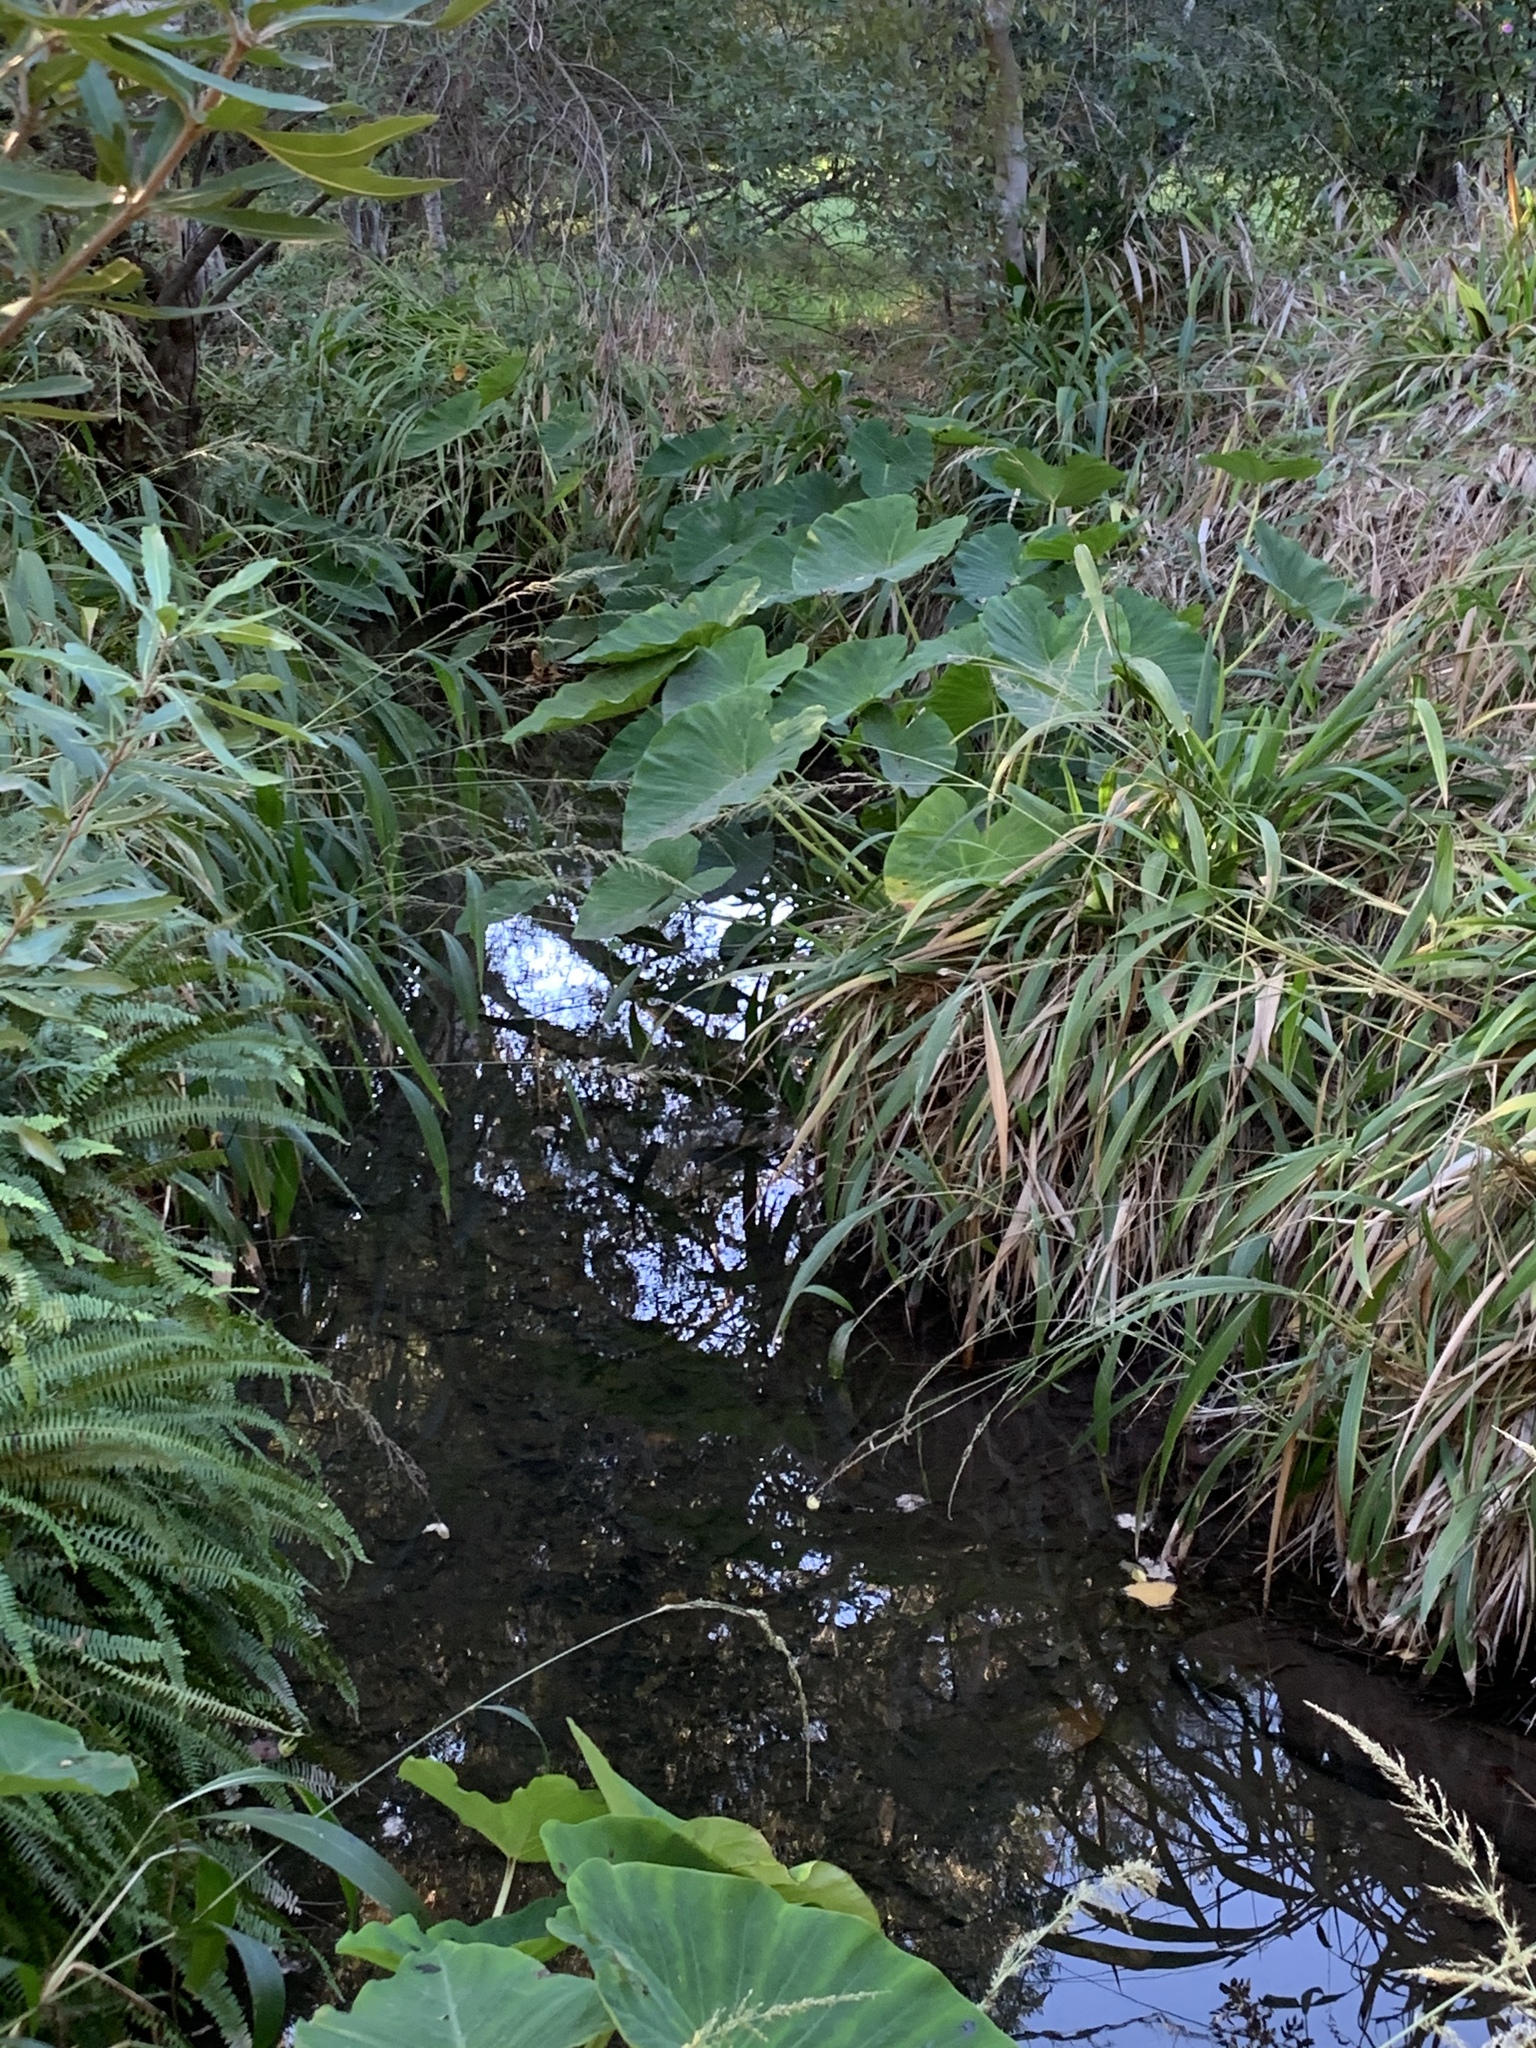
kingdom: Plantae
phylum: Tracheophyta
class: Liliopsida
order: Alismatales
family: Araceae
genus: Colocasia
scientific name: Colocasia esculenta
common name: Taro
